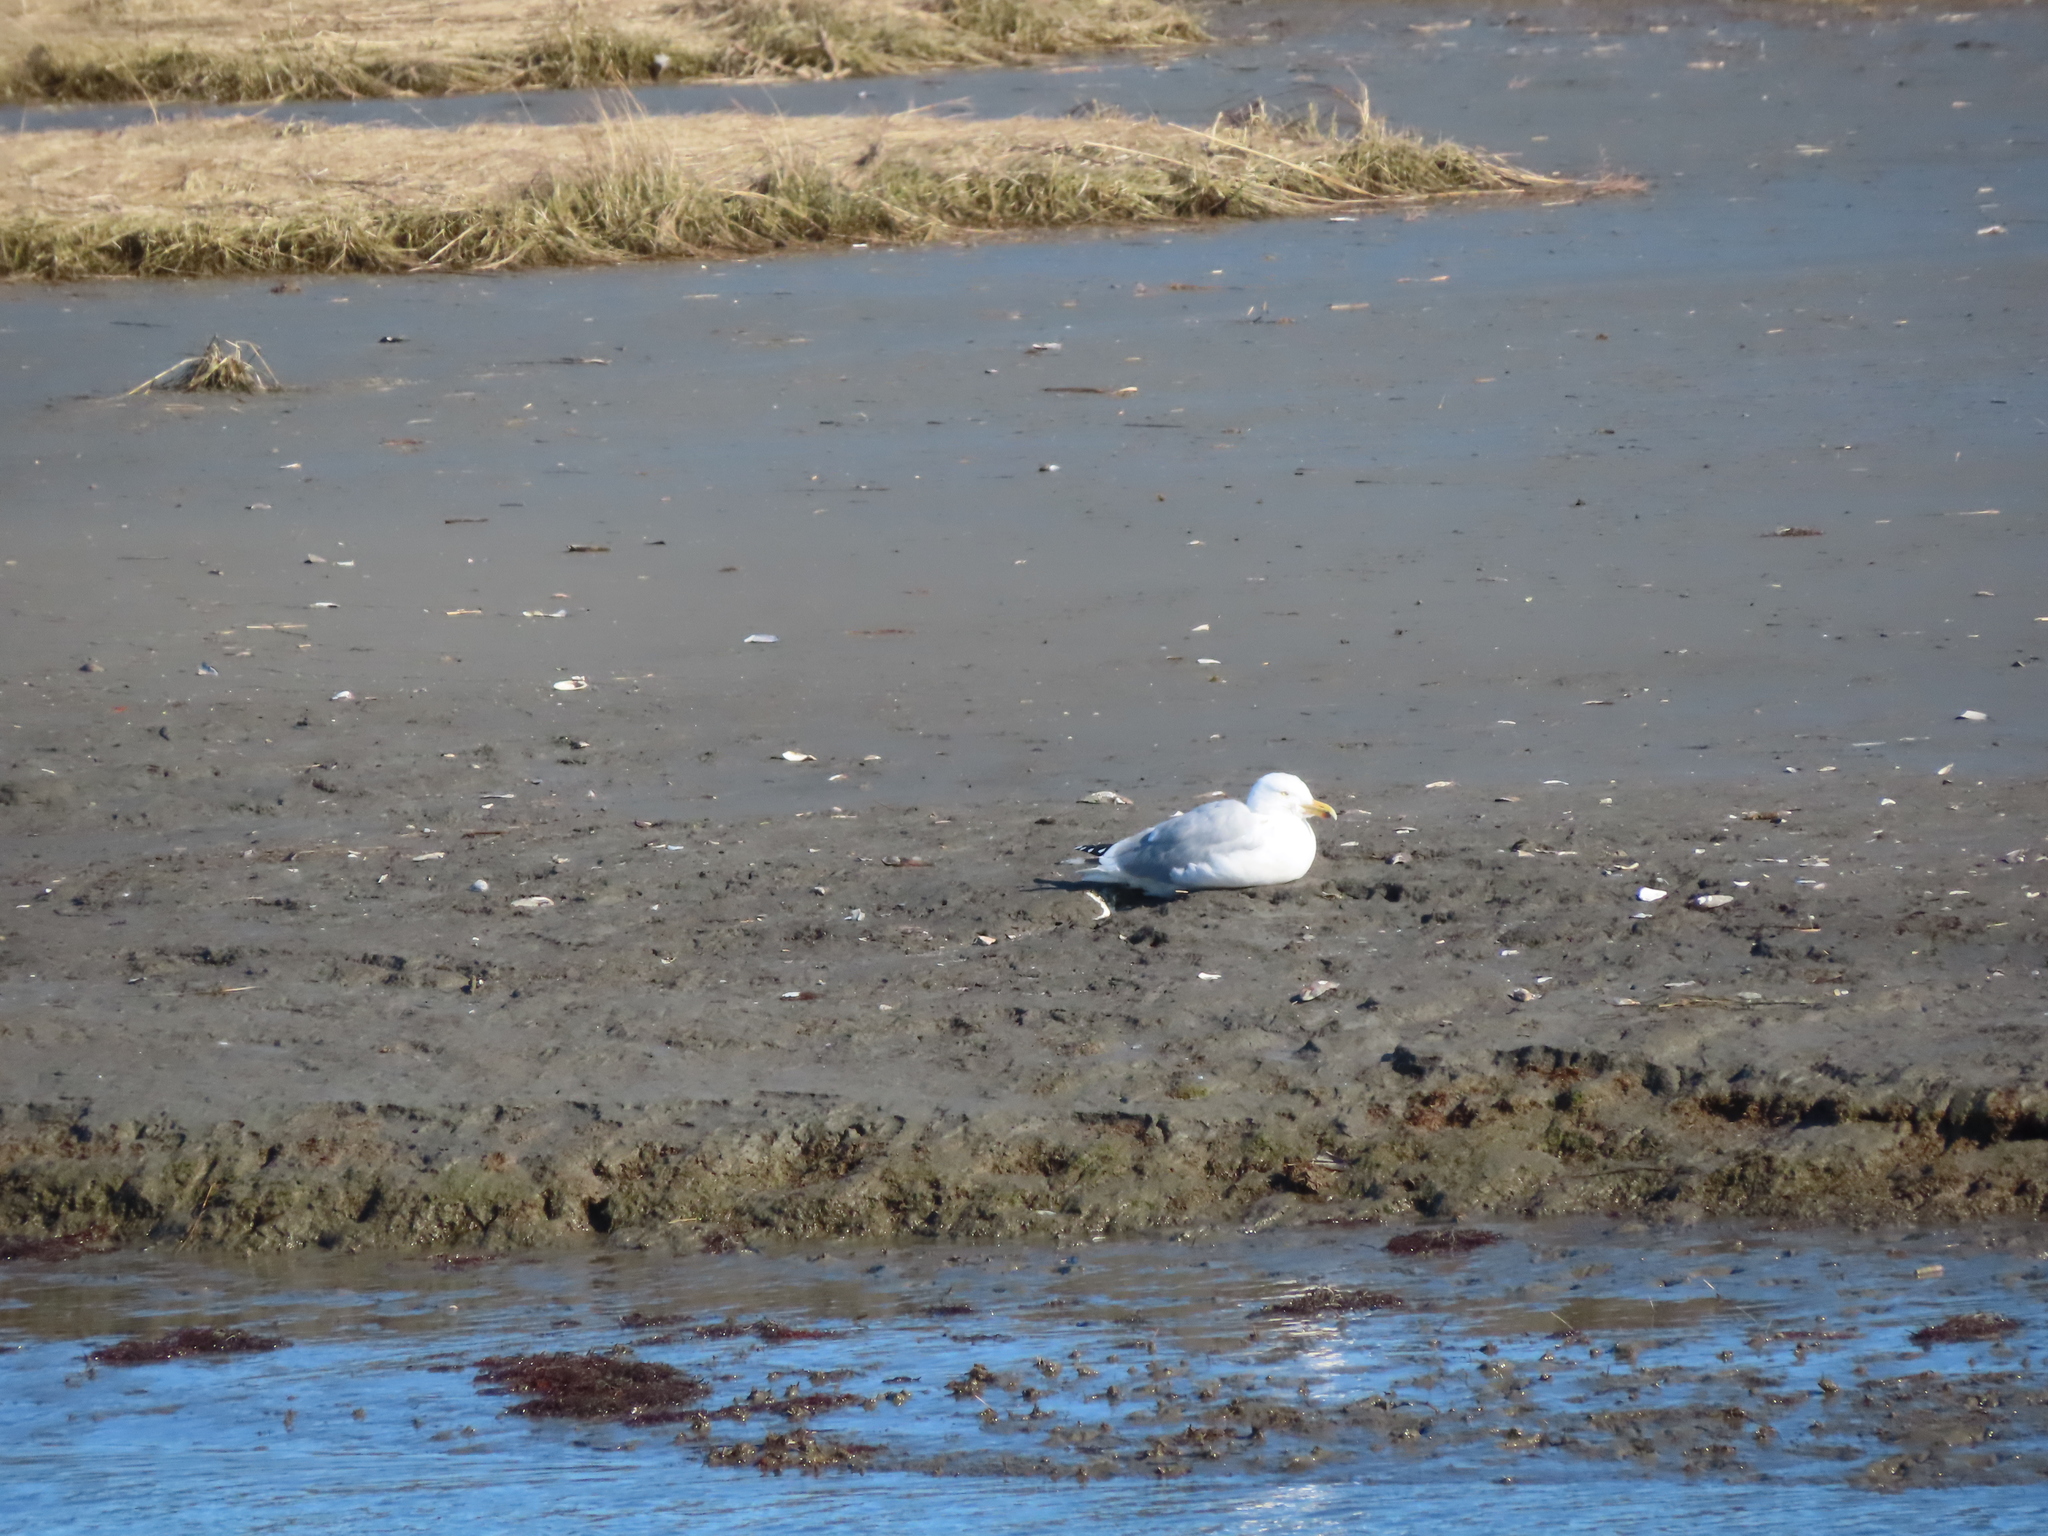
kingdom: Animalia
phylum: Chordata
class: Aves
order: Charadriiformes
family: Laridae
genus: Larus
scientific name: Larus argentatus
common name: Herring gull
